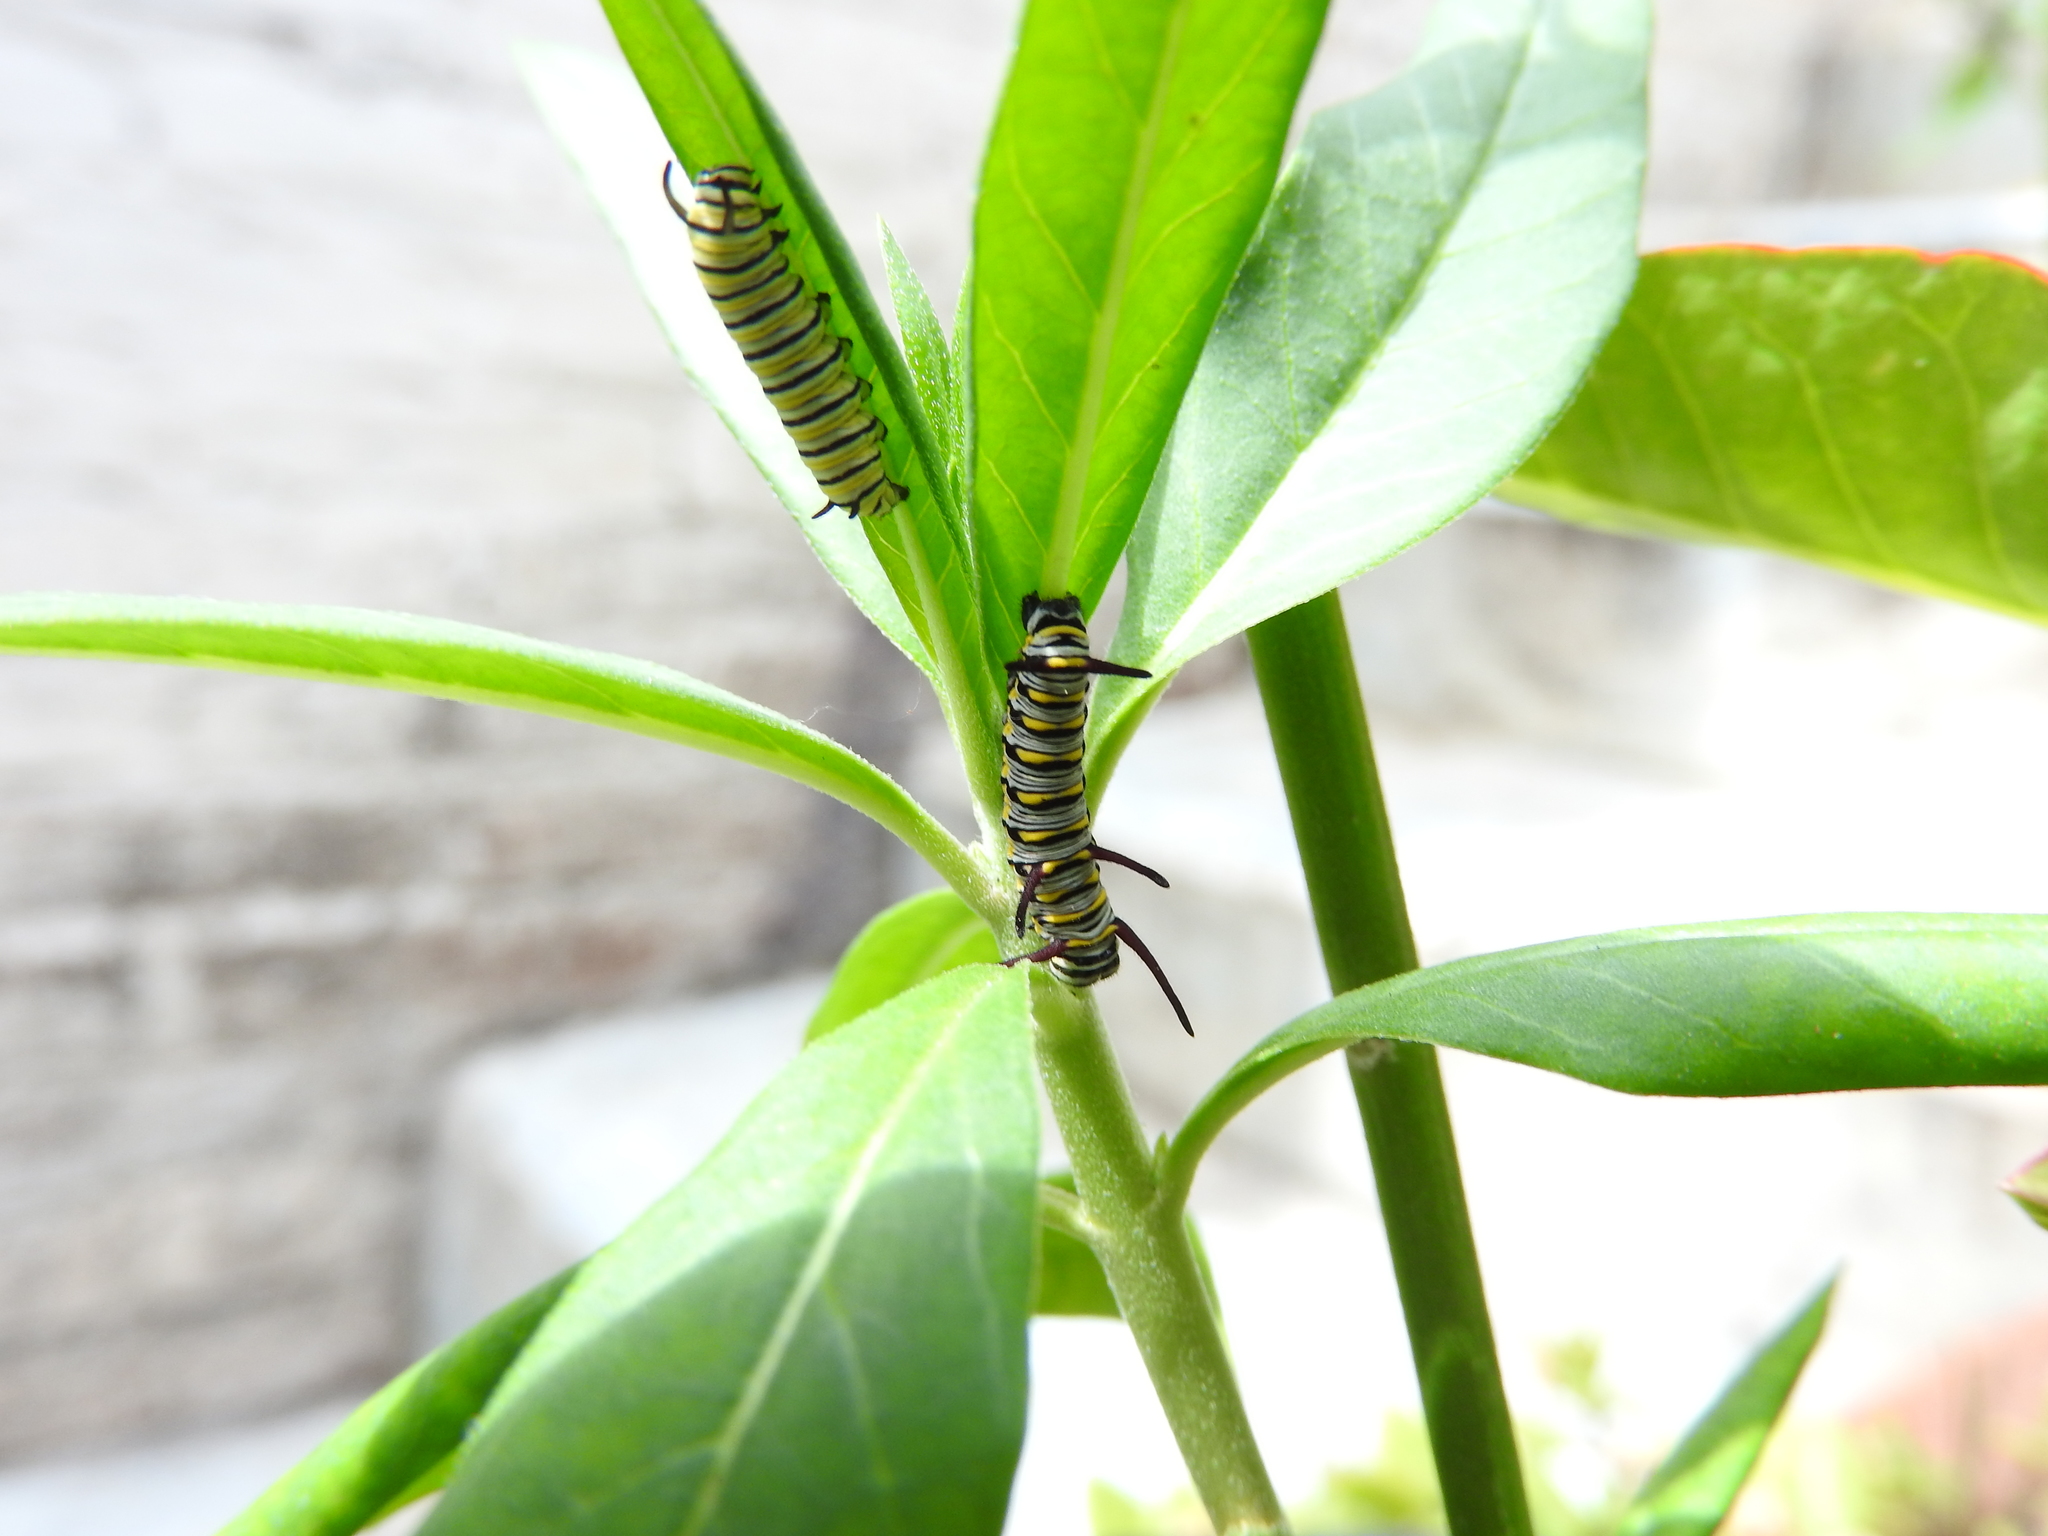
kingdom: Animalia
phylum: Arthropoda
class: Insecta
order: Lepidoptera
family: Nymphalidae
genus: Danaus
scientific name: Danaus plexippus
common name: Monarch
